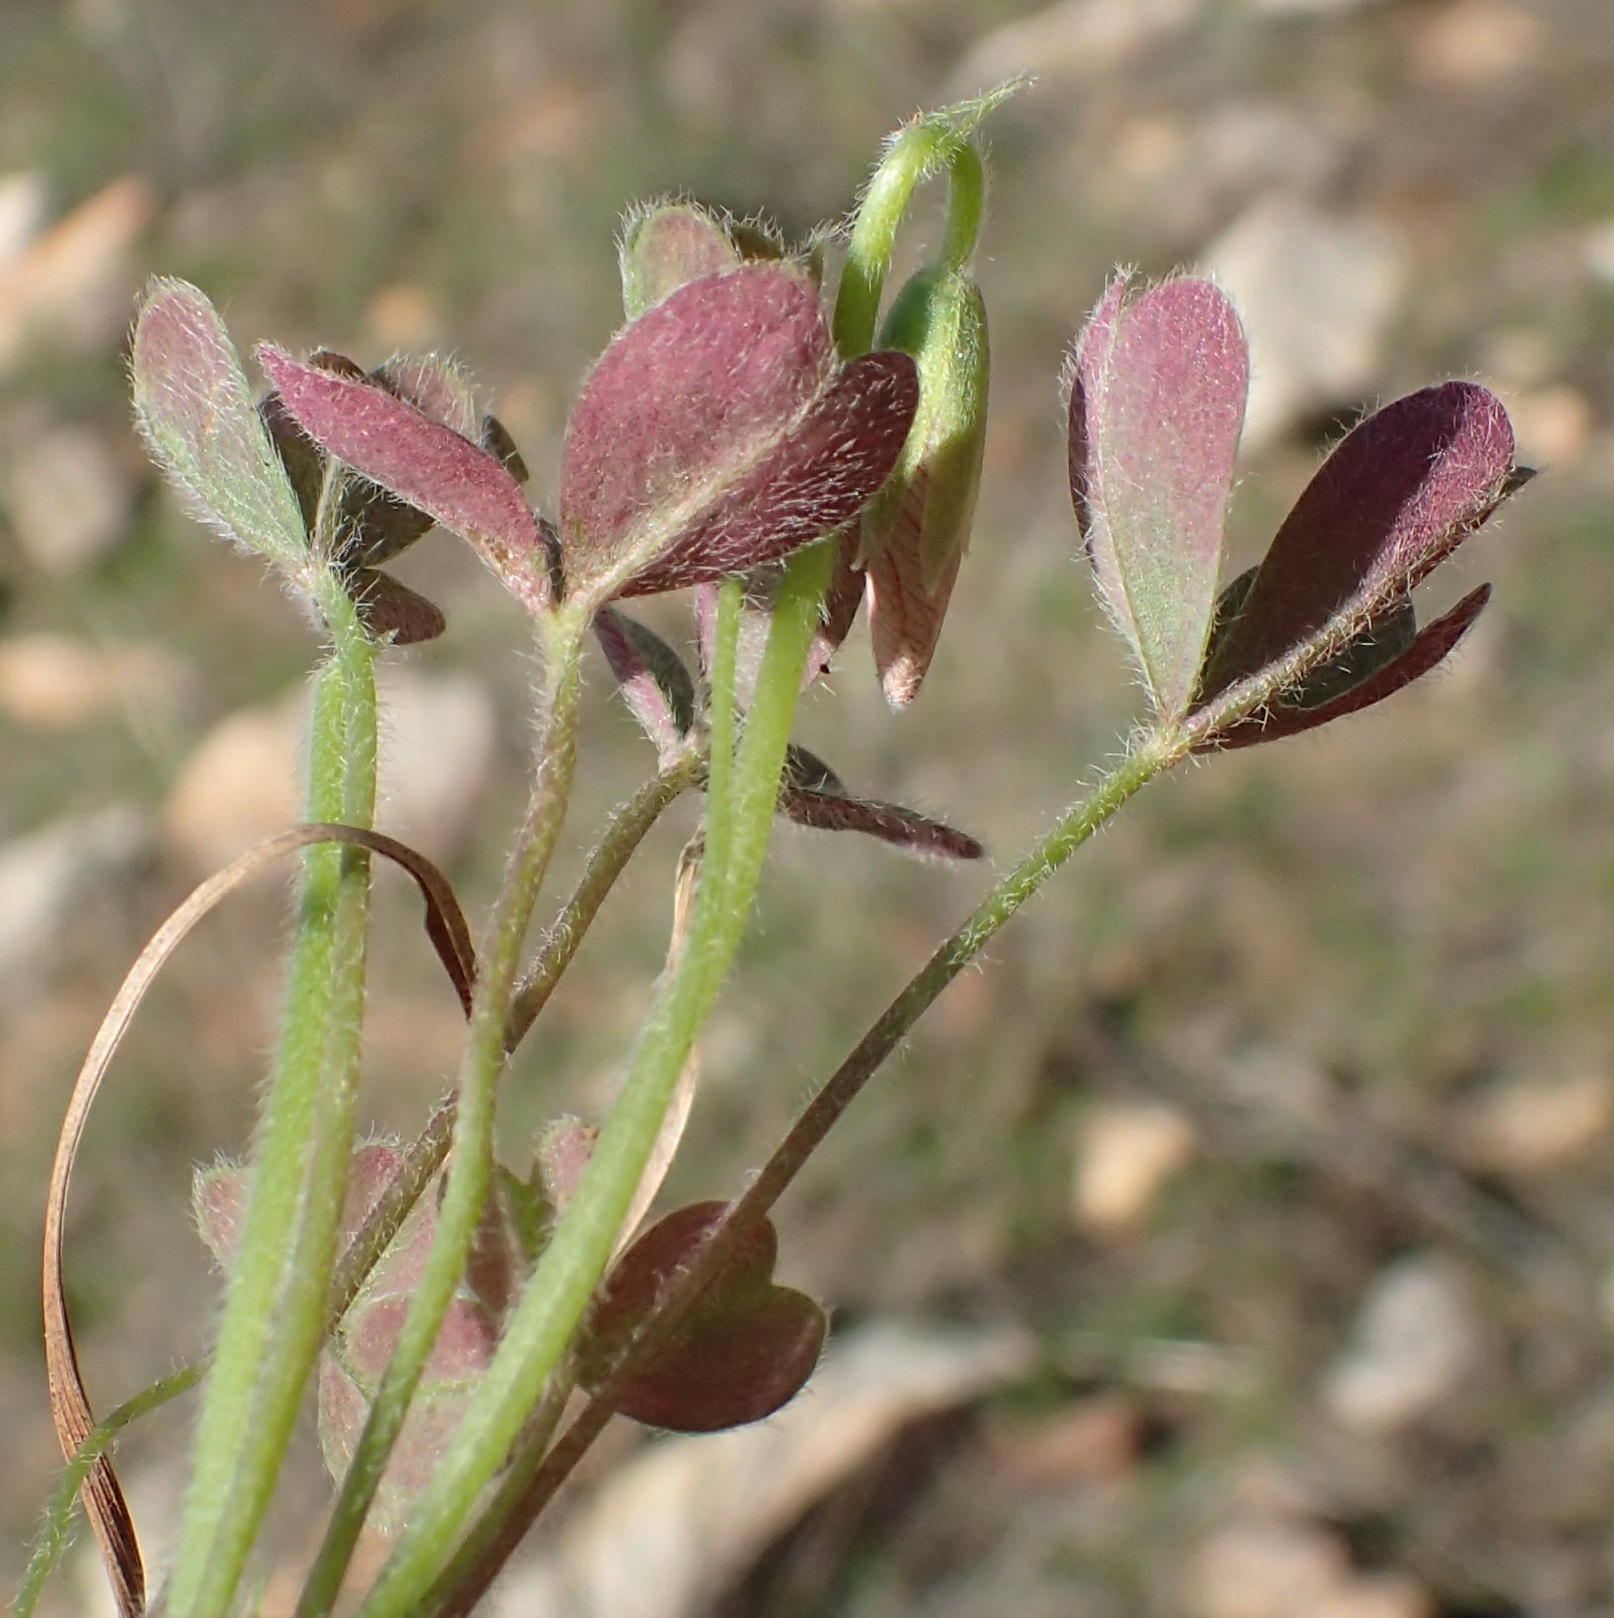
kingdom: Plantae
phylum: Tracheophyta
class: Magnoliopsida
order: Oxalidales
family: Oxalidaceae
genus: Oxalis
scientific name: Oxalis obtusa
